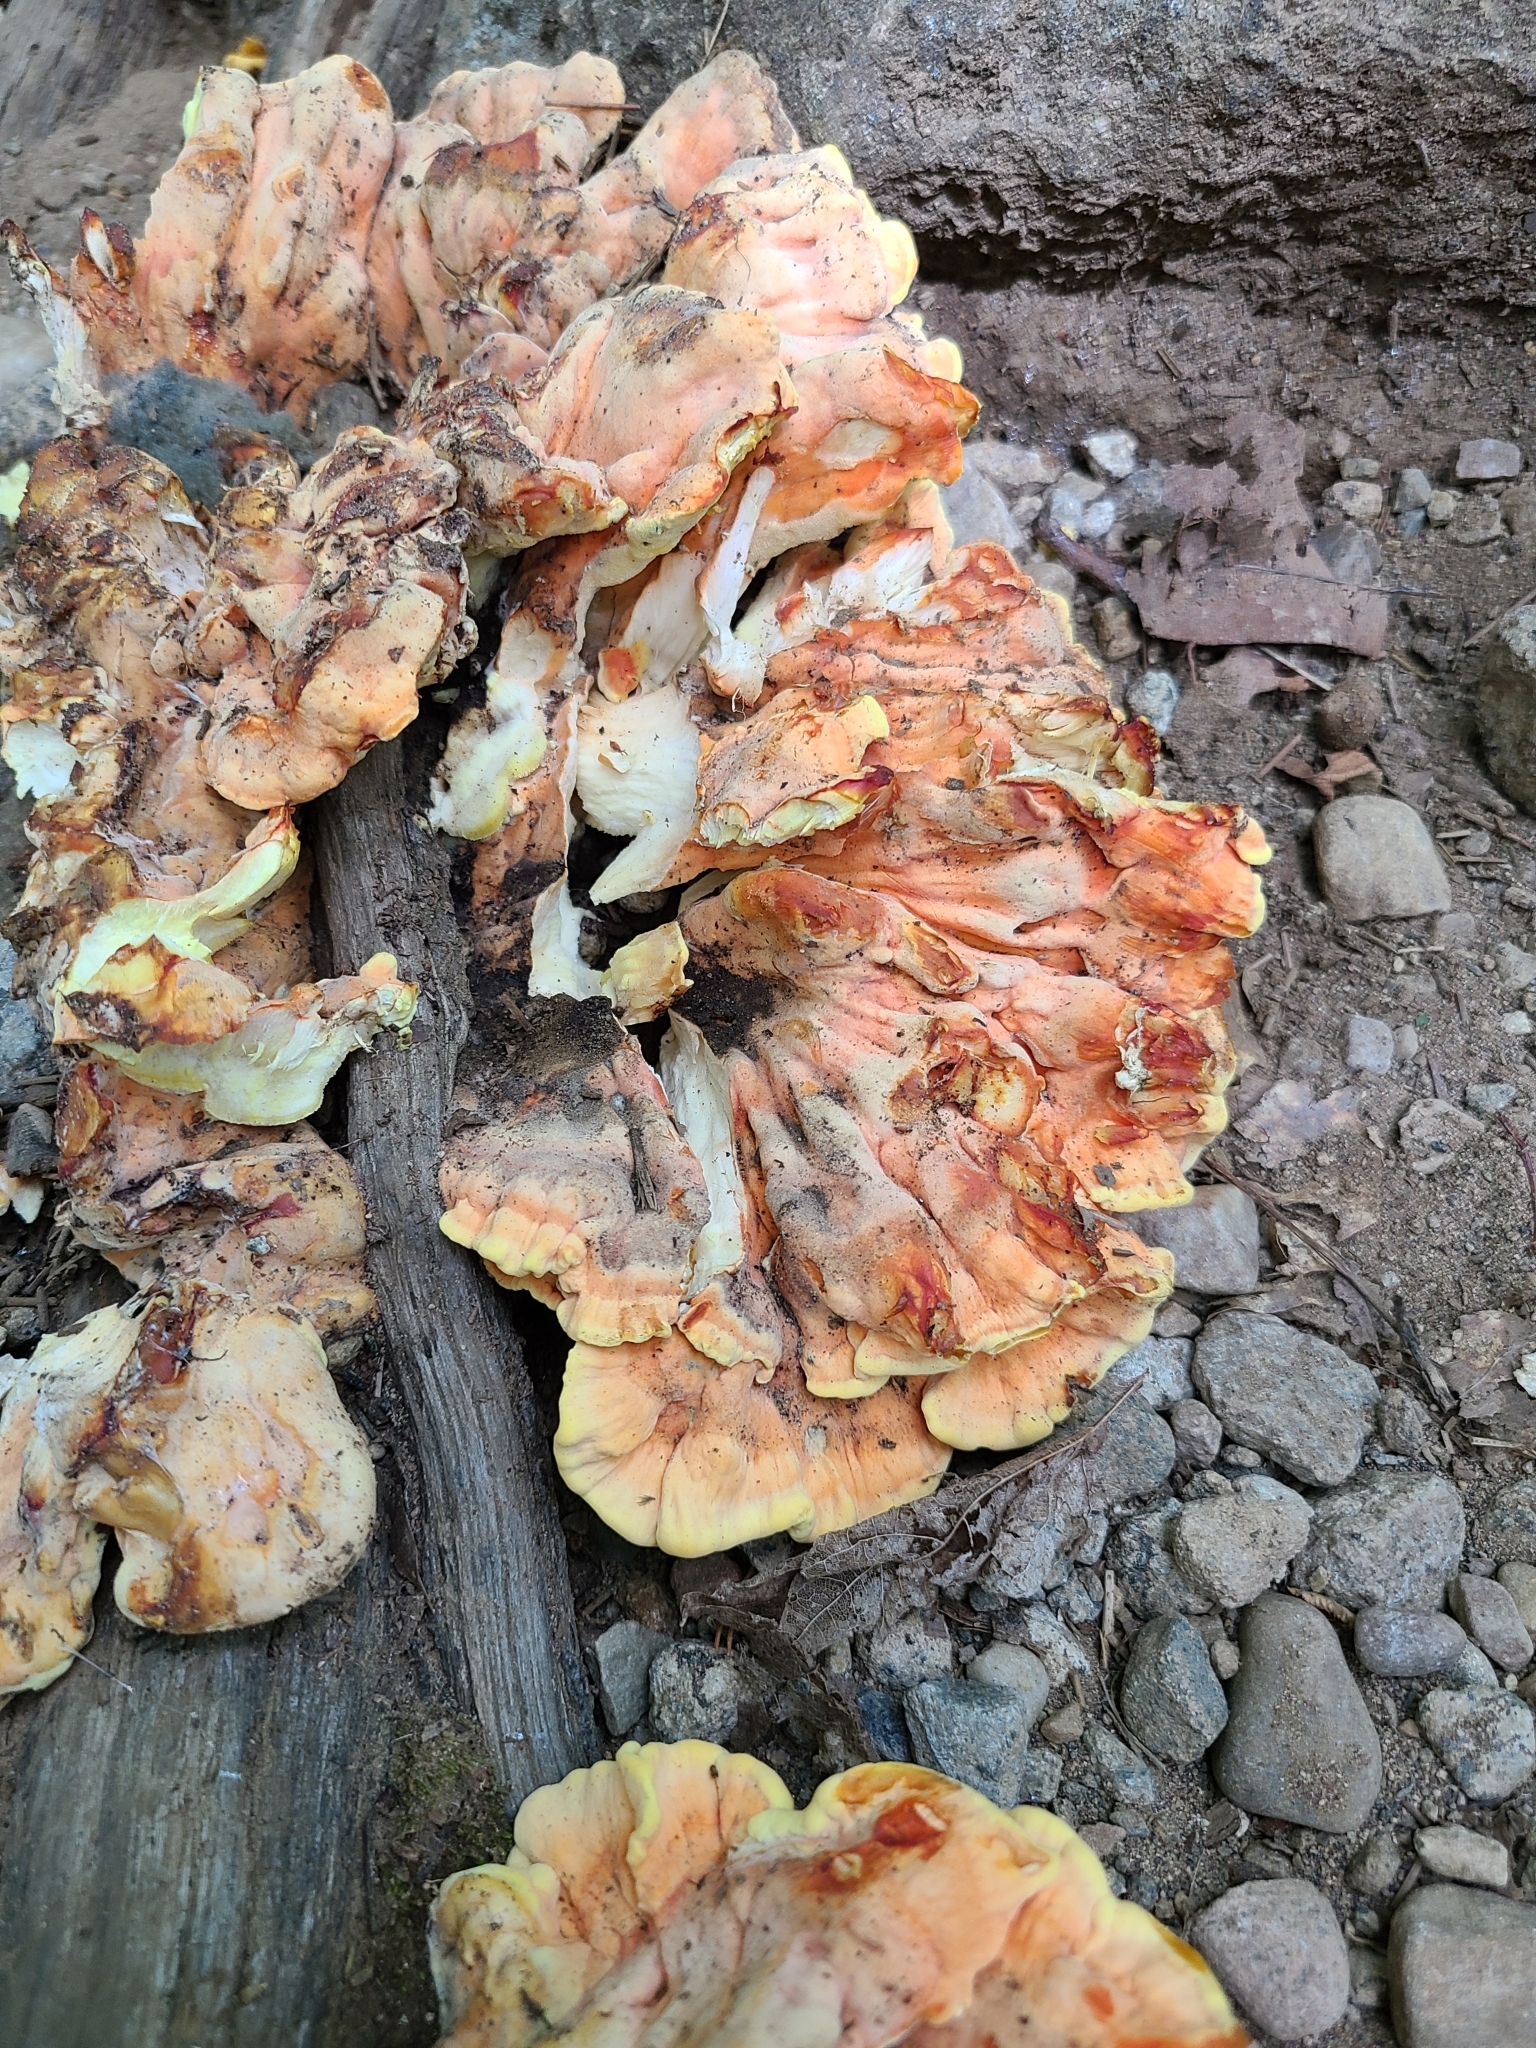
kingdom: Fungi
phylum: Basidiomycota
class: Agaricomycetes
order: Polyporales
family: Laetiporaceae
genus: Laetiporus
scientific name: Laetiporus sulphureus
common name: Chicken of the woods
